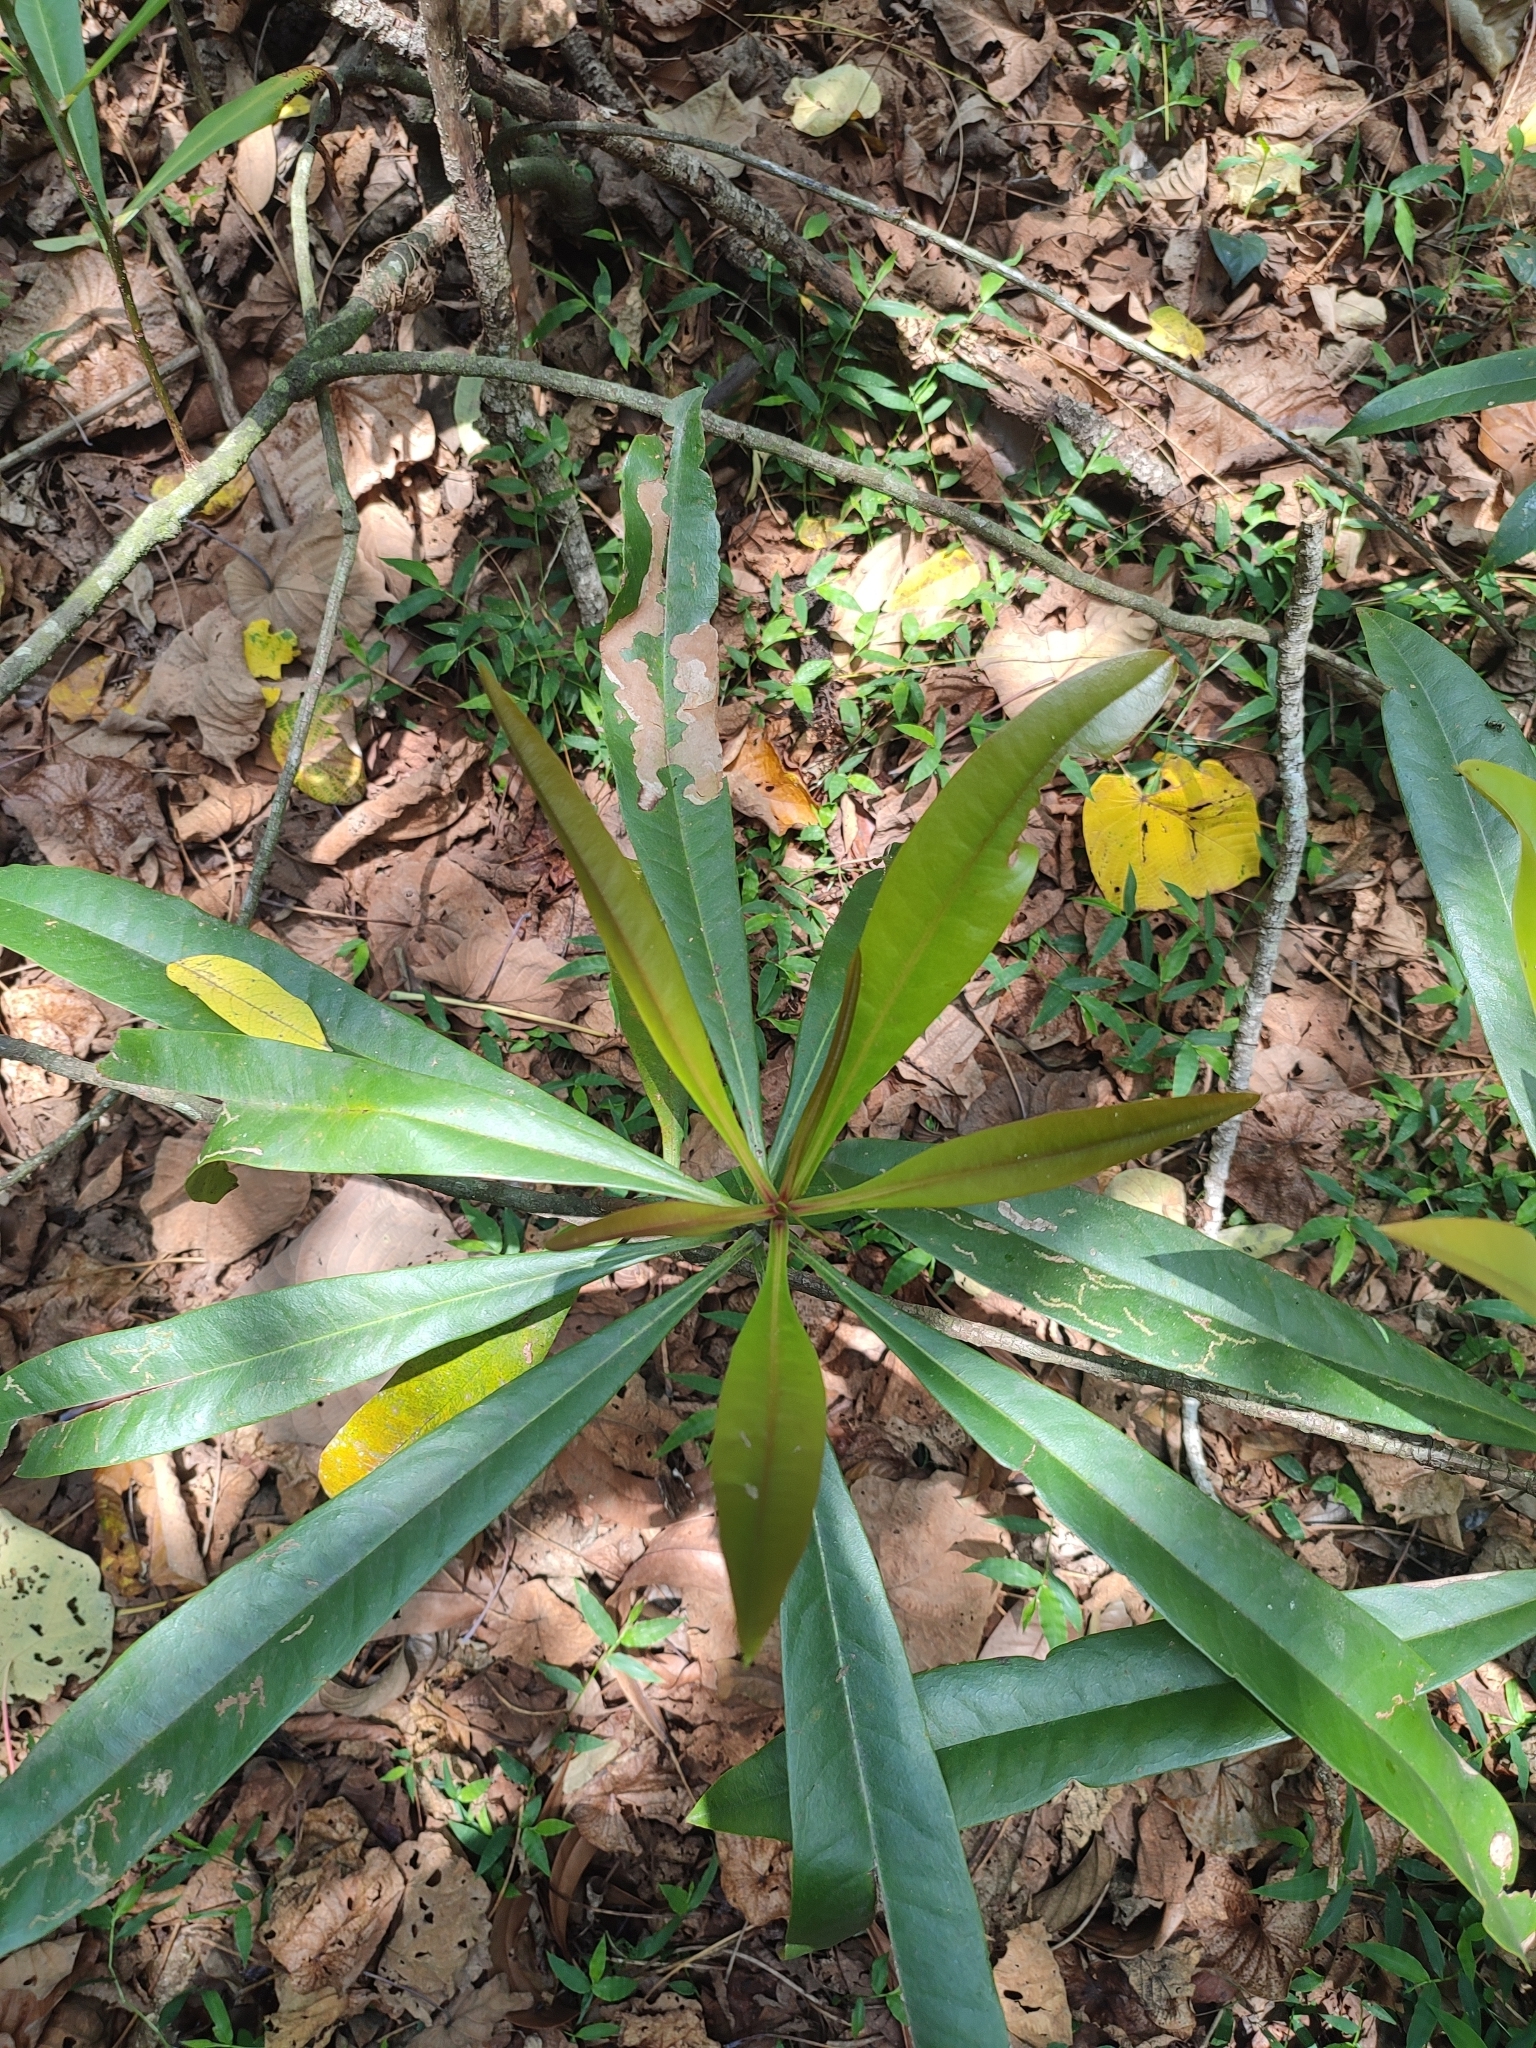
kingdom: Plantae
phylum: Tracheophyta
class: Magnoliopsida
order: Caryophyllales
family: Ancistrocladaceae
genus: Ancistrocladus
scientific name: Ancistrocladus heyneanus
